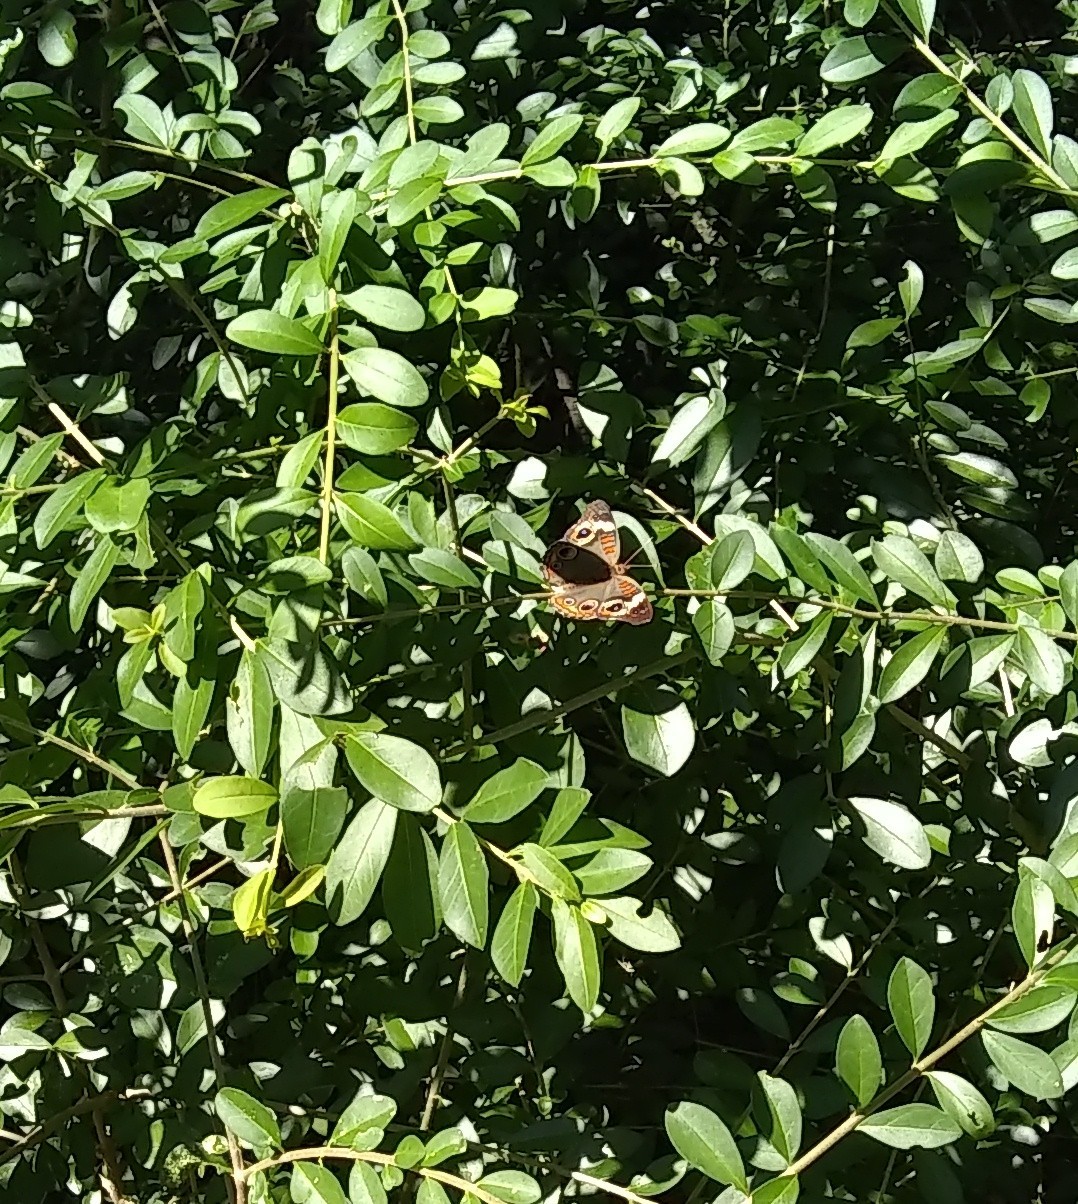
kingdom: Animalia
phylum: Arthropoda
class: Insecta
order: Lepidoptera
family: Nymphalidae
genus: Junonia
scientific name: Junonia coenia
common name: Common buckeye
